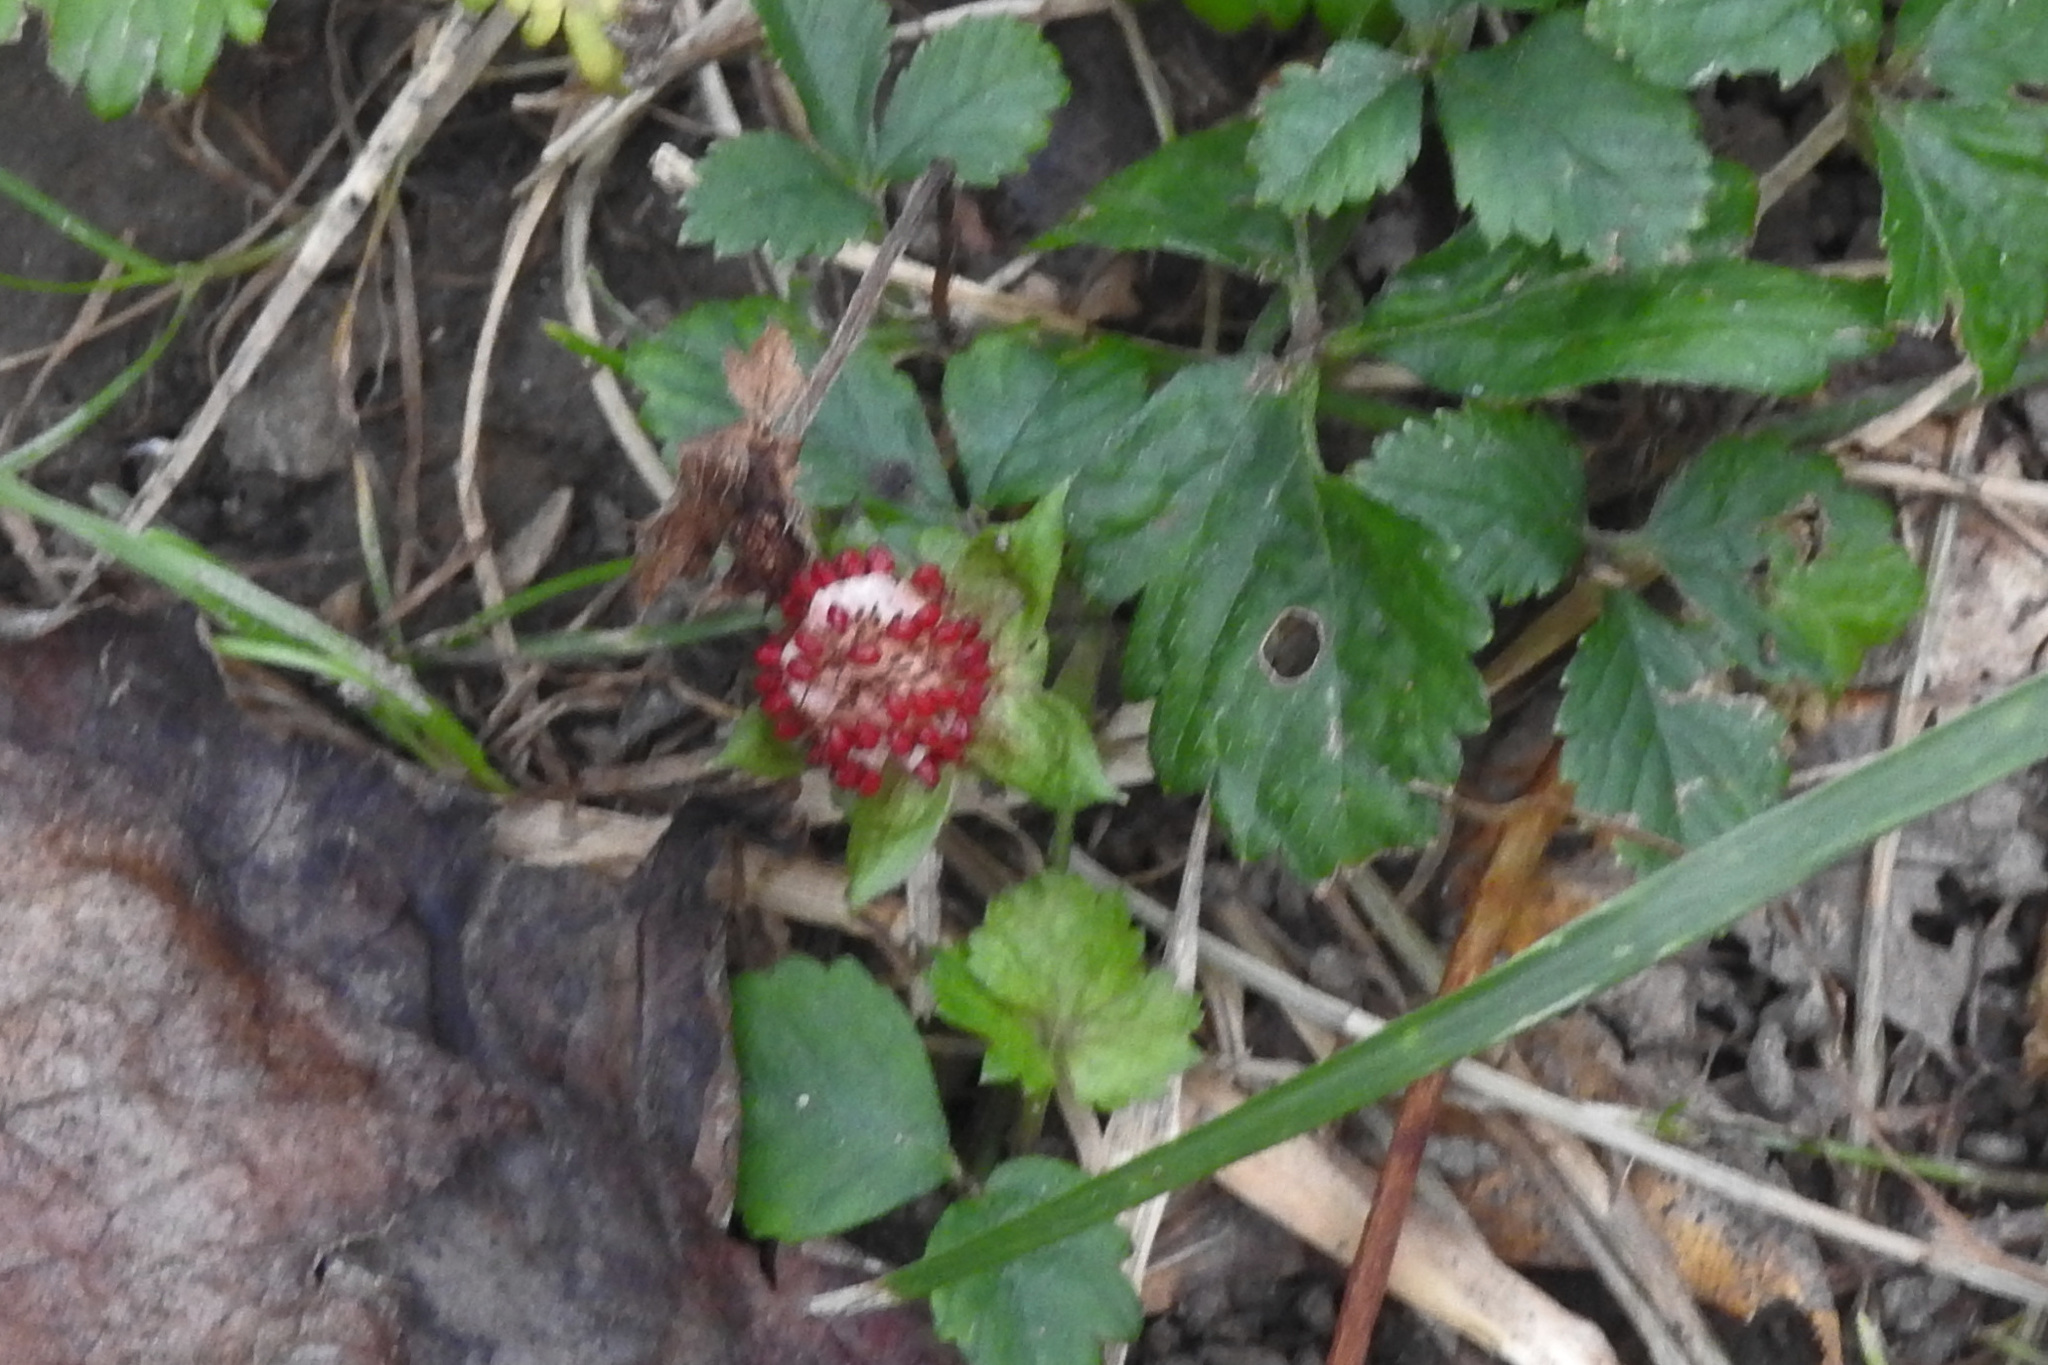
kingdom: Plantae
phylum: Tracheophyta
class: Magnoliopsida
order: Rosales
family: Rosaceae
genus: Potentilla
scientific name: Potentilla indica
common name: Yellow-flowered strawberry
